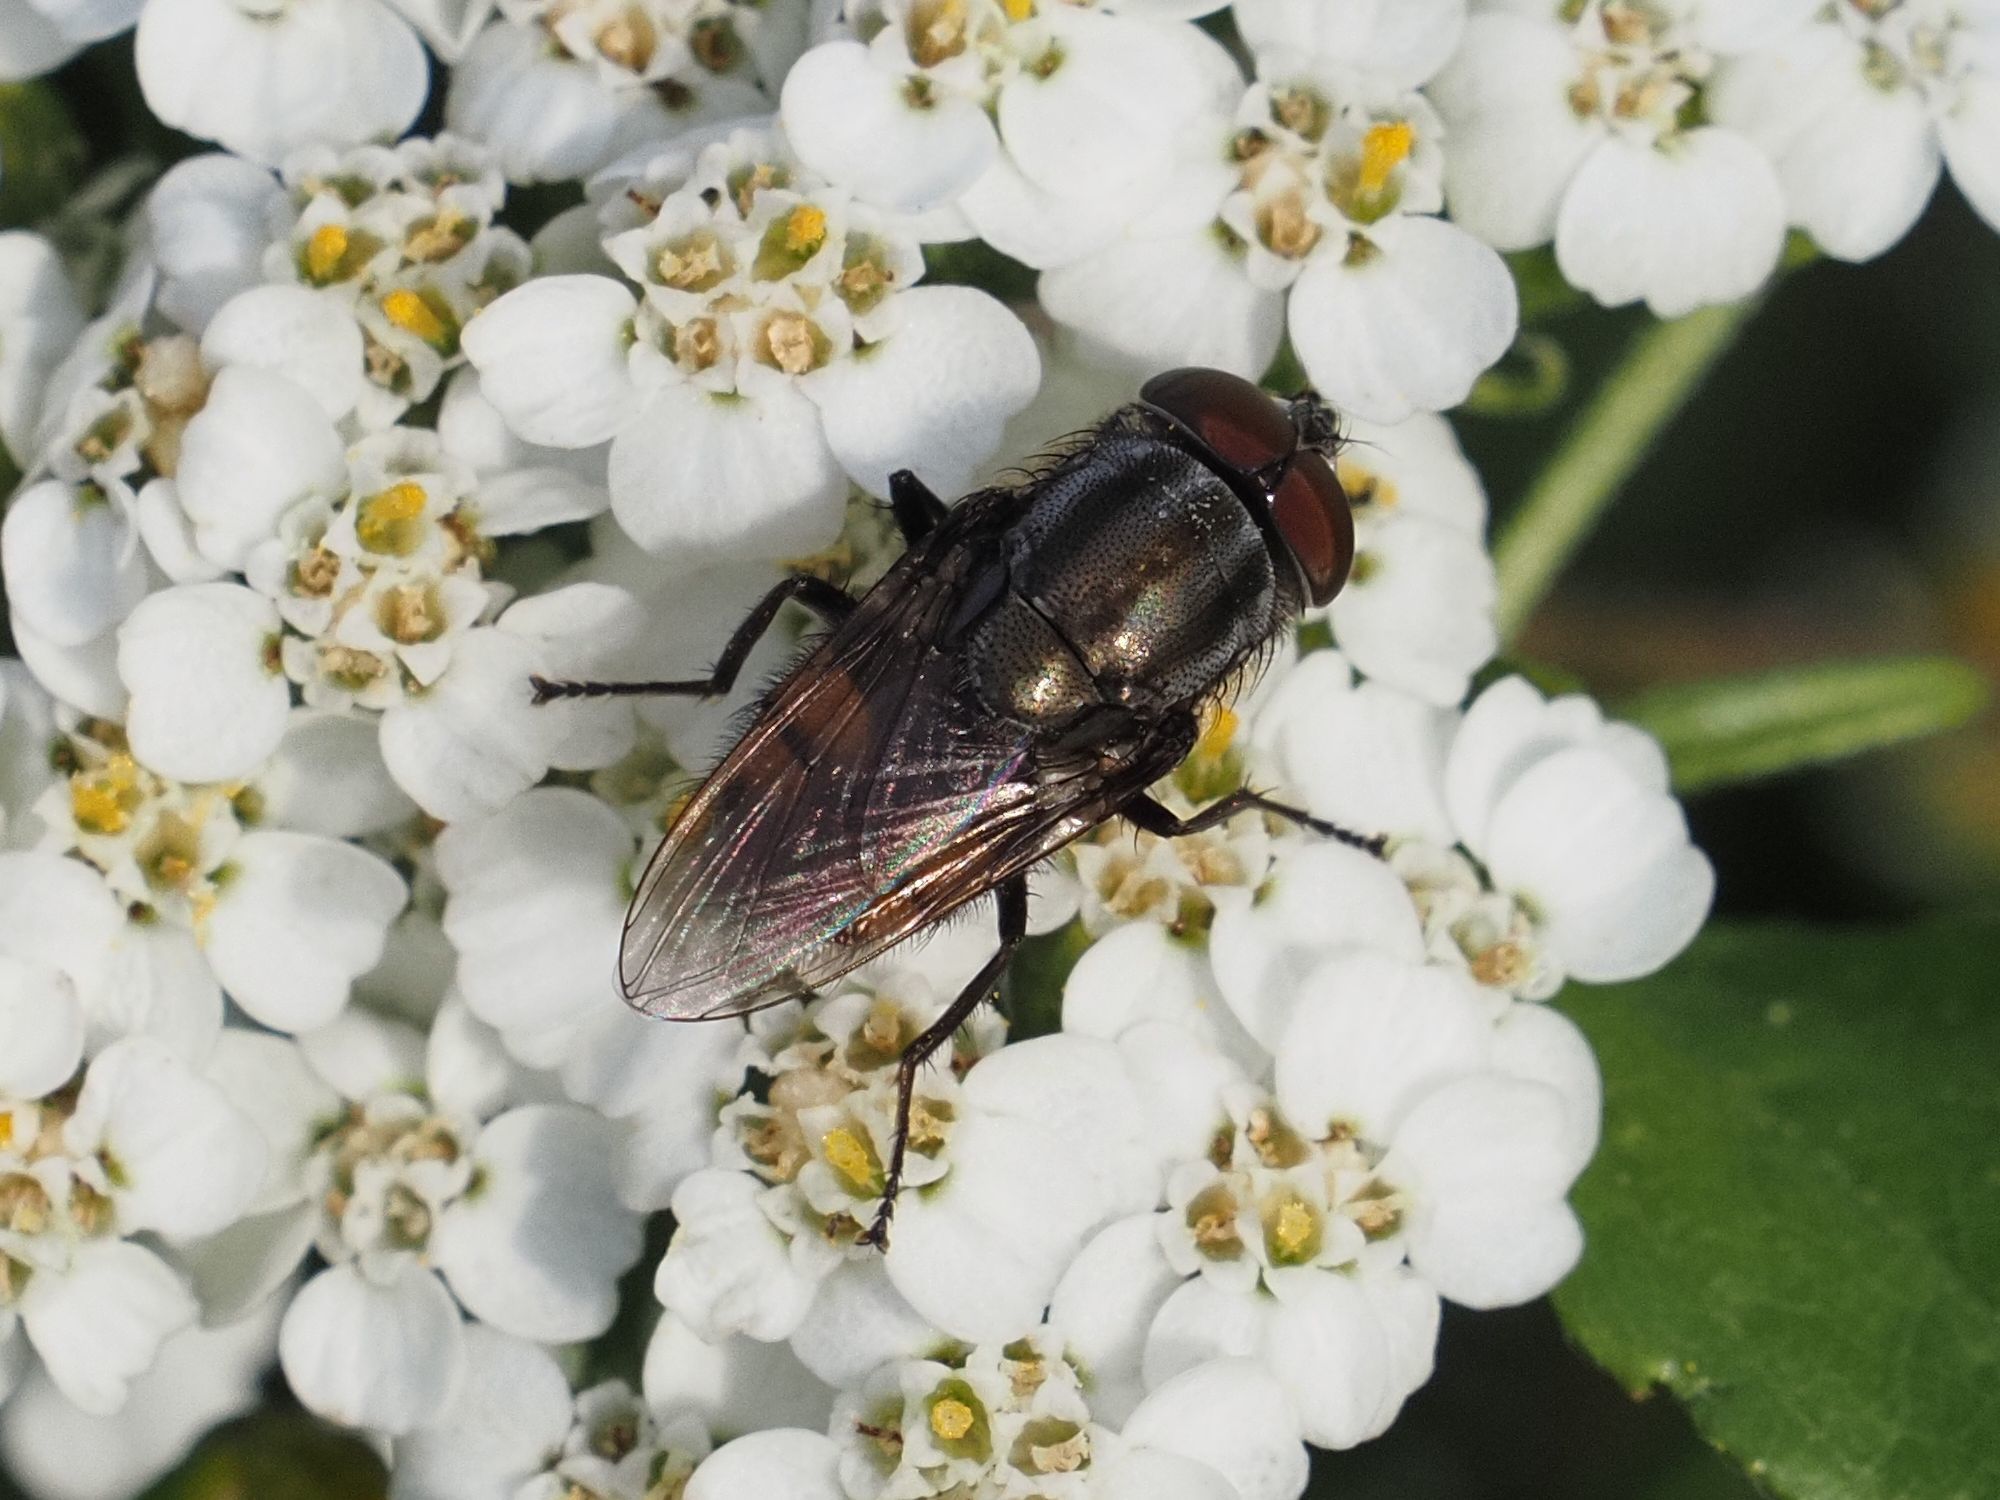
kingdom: Animalia
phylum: Arthropoda
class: Insecta
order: Diptera
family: Calliphoridae
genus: Stomorhina
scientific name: Stomorhina lunata
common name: Locust blowfly
